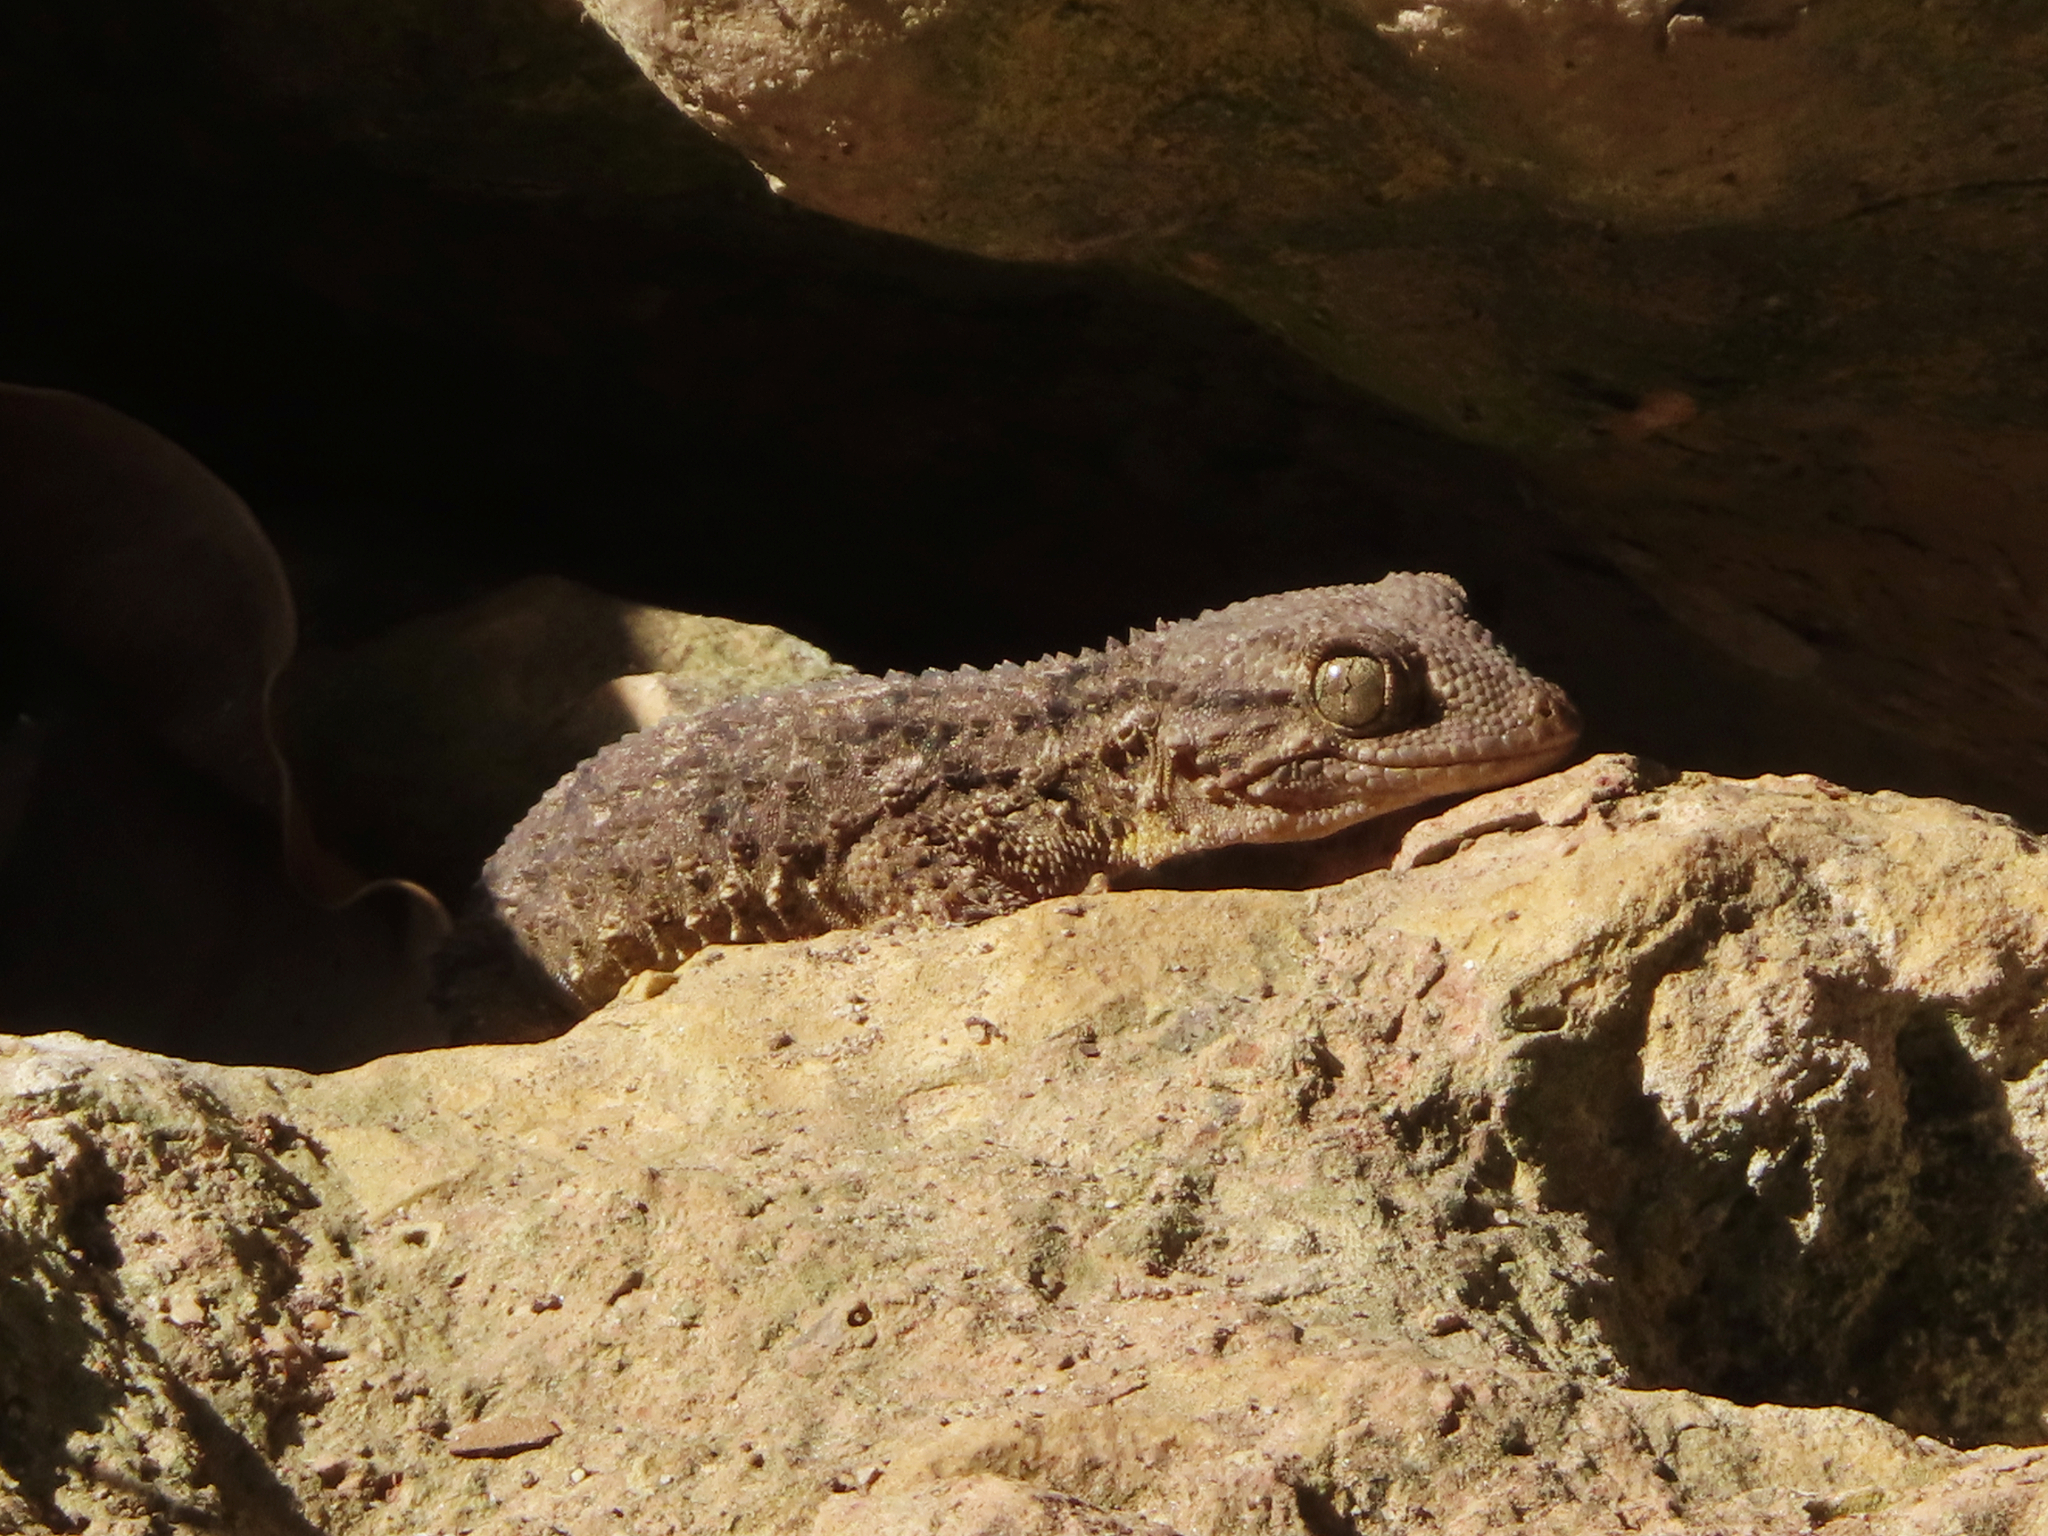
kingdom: Animalia
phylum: Chordata
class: Squamata
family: Phyllodactylidae
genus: Tarentola
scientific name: Tarentola mauritanica
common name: Moorish gecko
